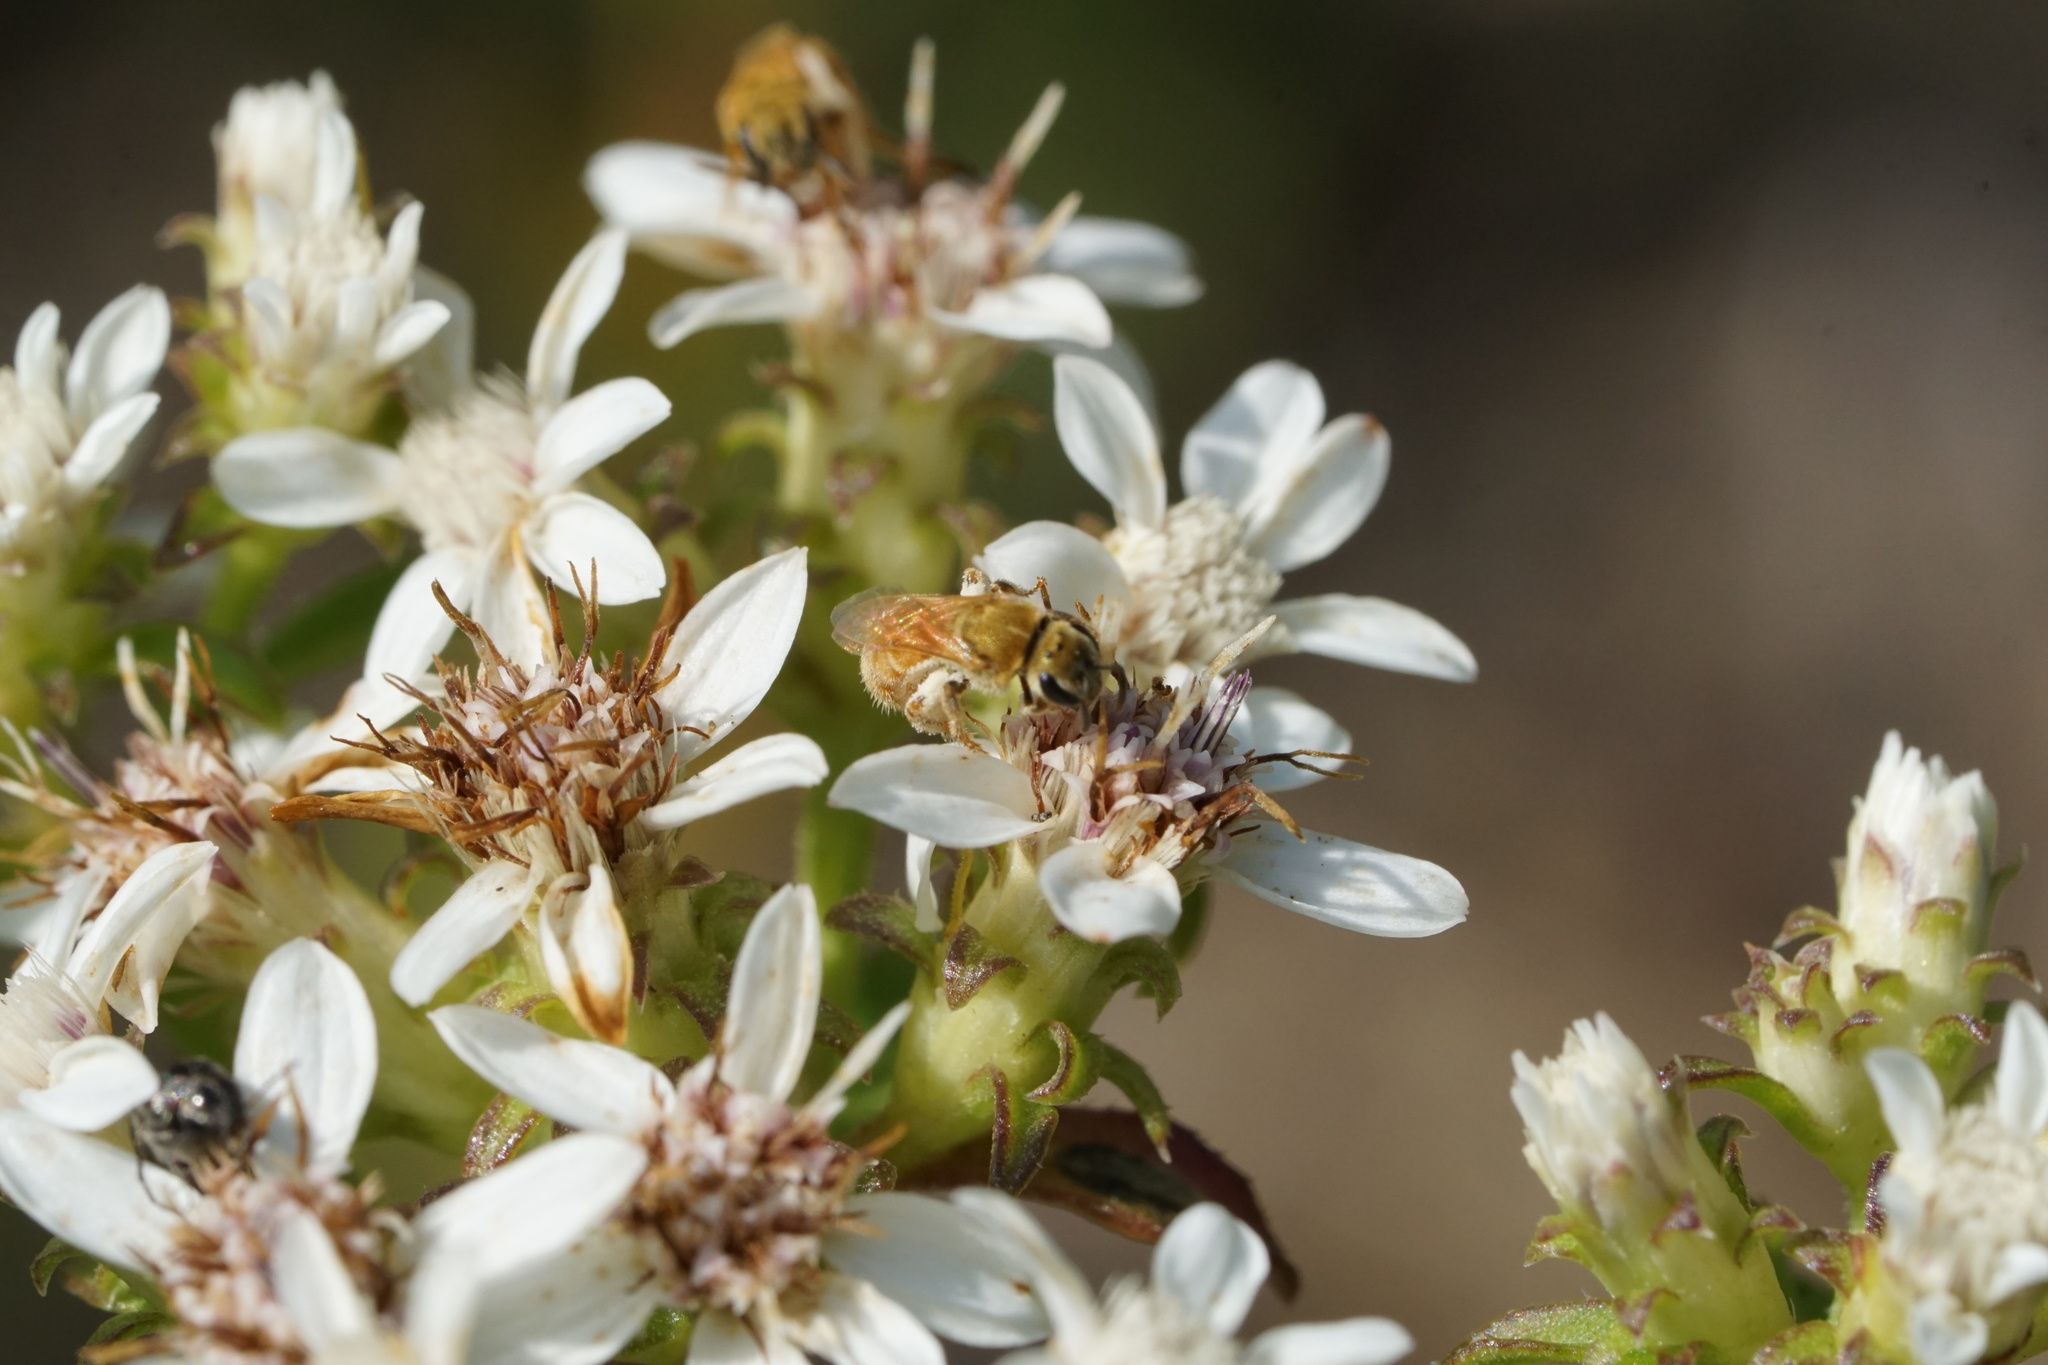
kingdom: Animalia
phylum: Arthropoda
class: Insecta
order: Hymenoptera
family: Halictidae
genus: Lasioglossum
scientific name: Lasioglossum vierecki
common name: Viereck's sweat bee
